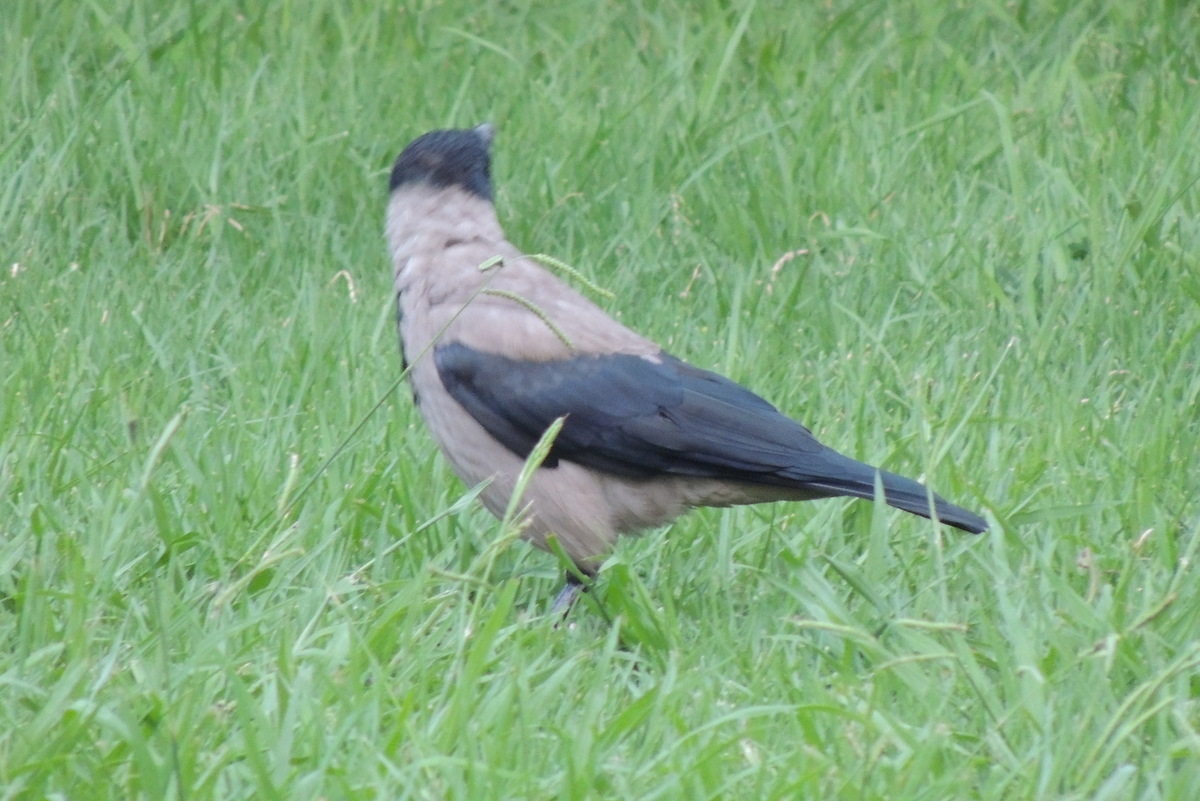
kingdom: Animalia
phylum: Chordata
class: Aves
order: Passeriformes
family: Corvidae
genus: Corvus
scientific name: Corvus cornix
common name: Hooded crow
